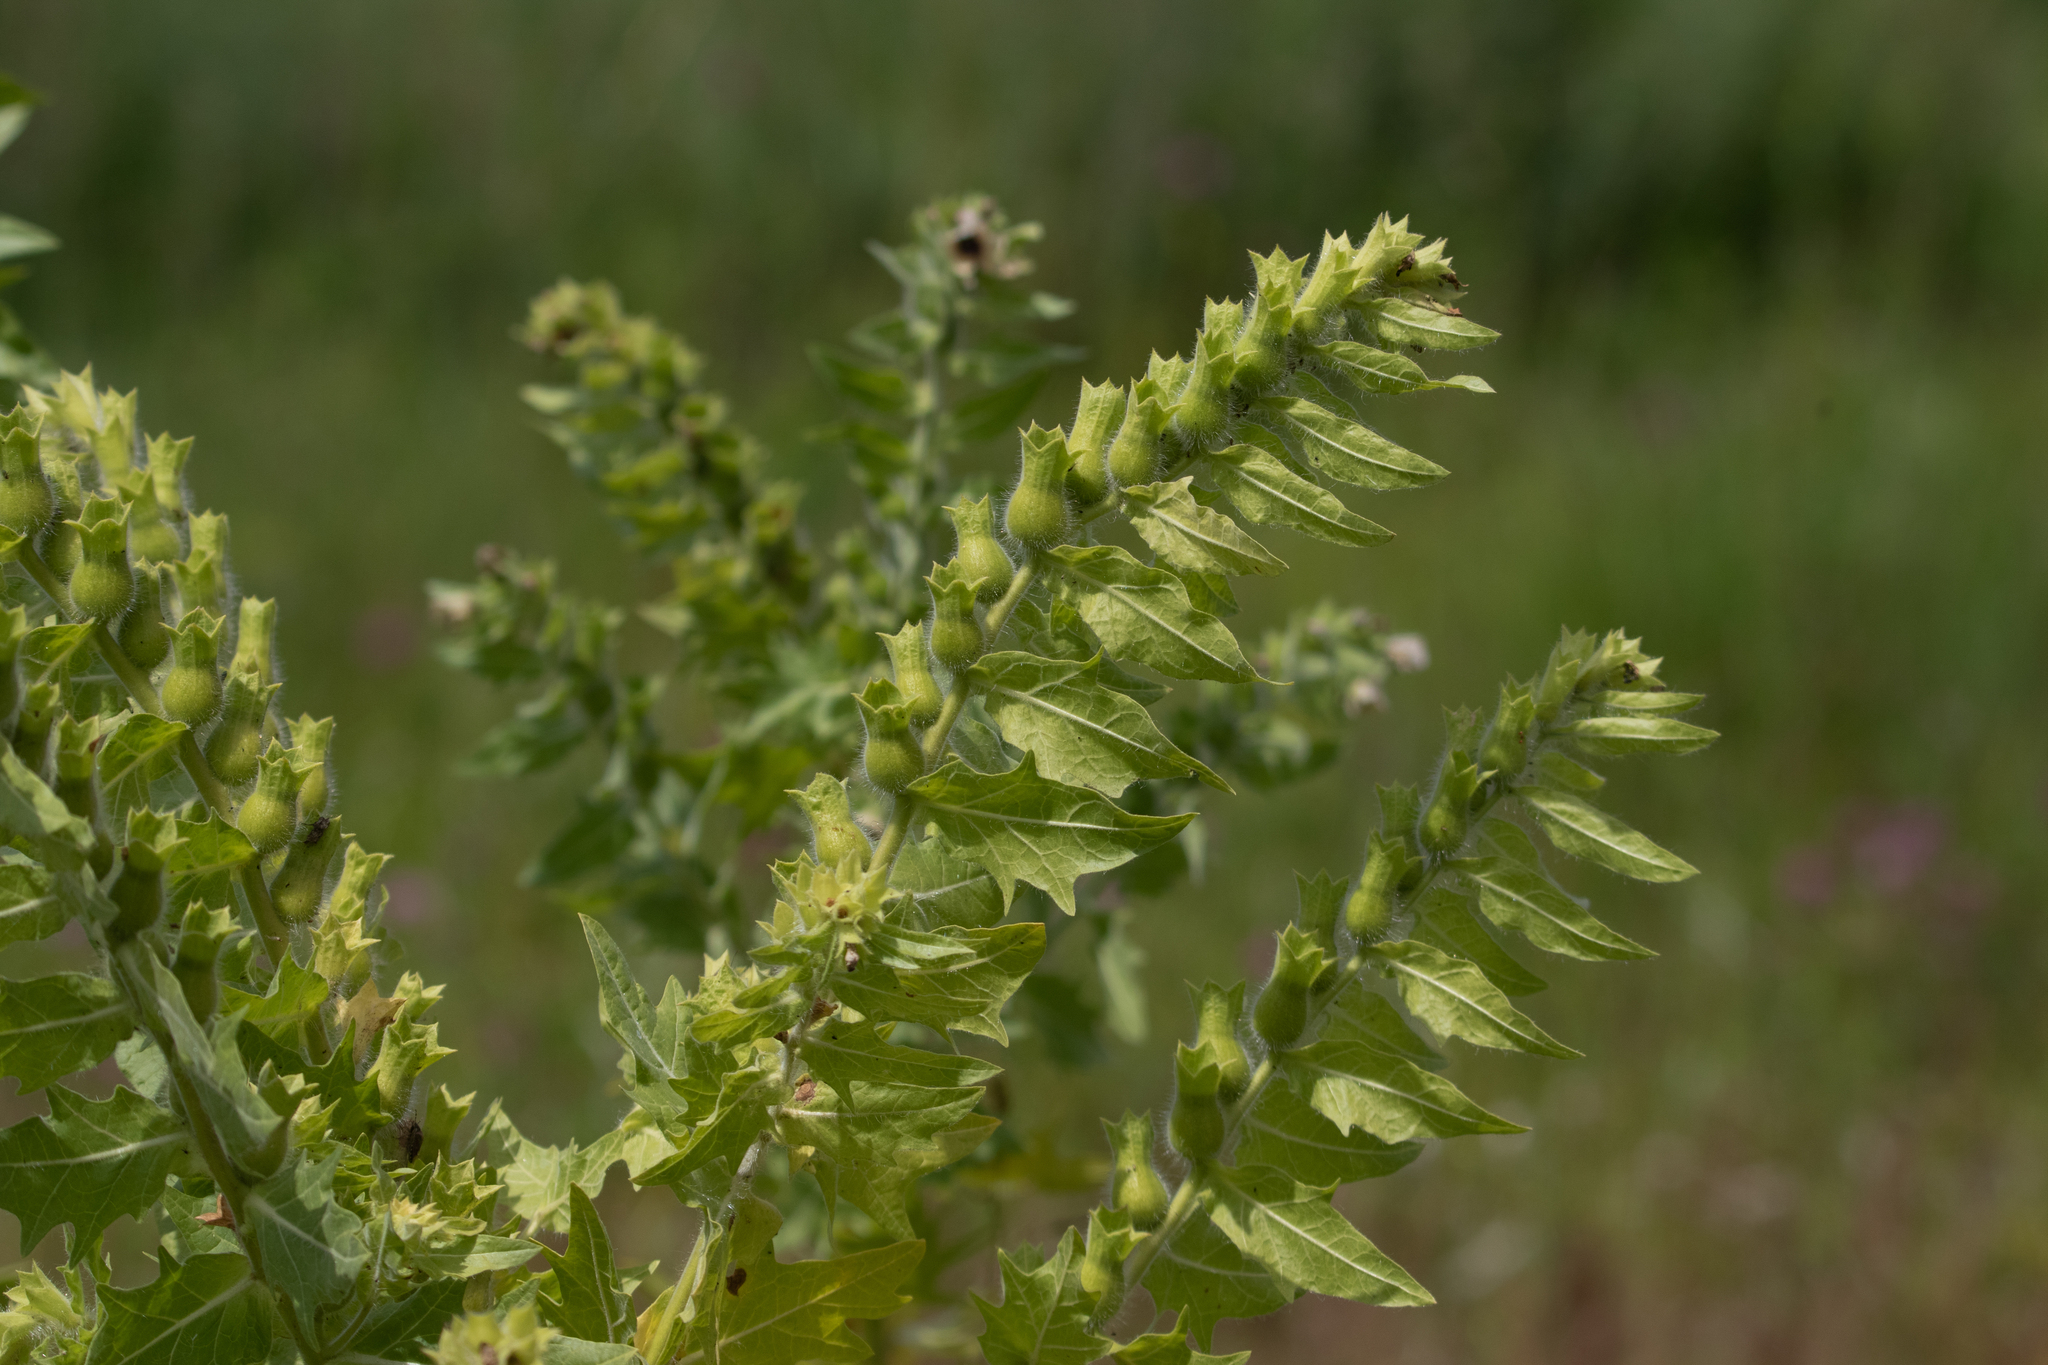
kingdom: Plantae
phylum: Tracheophyta
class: Magnoliopsida
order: Solanales
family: Solanaceae
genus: Hyoscyamus
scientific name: Hyoscyamus niger
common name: Henbane
